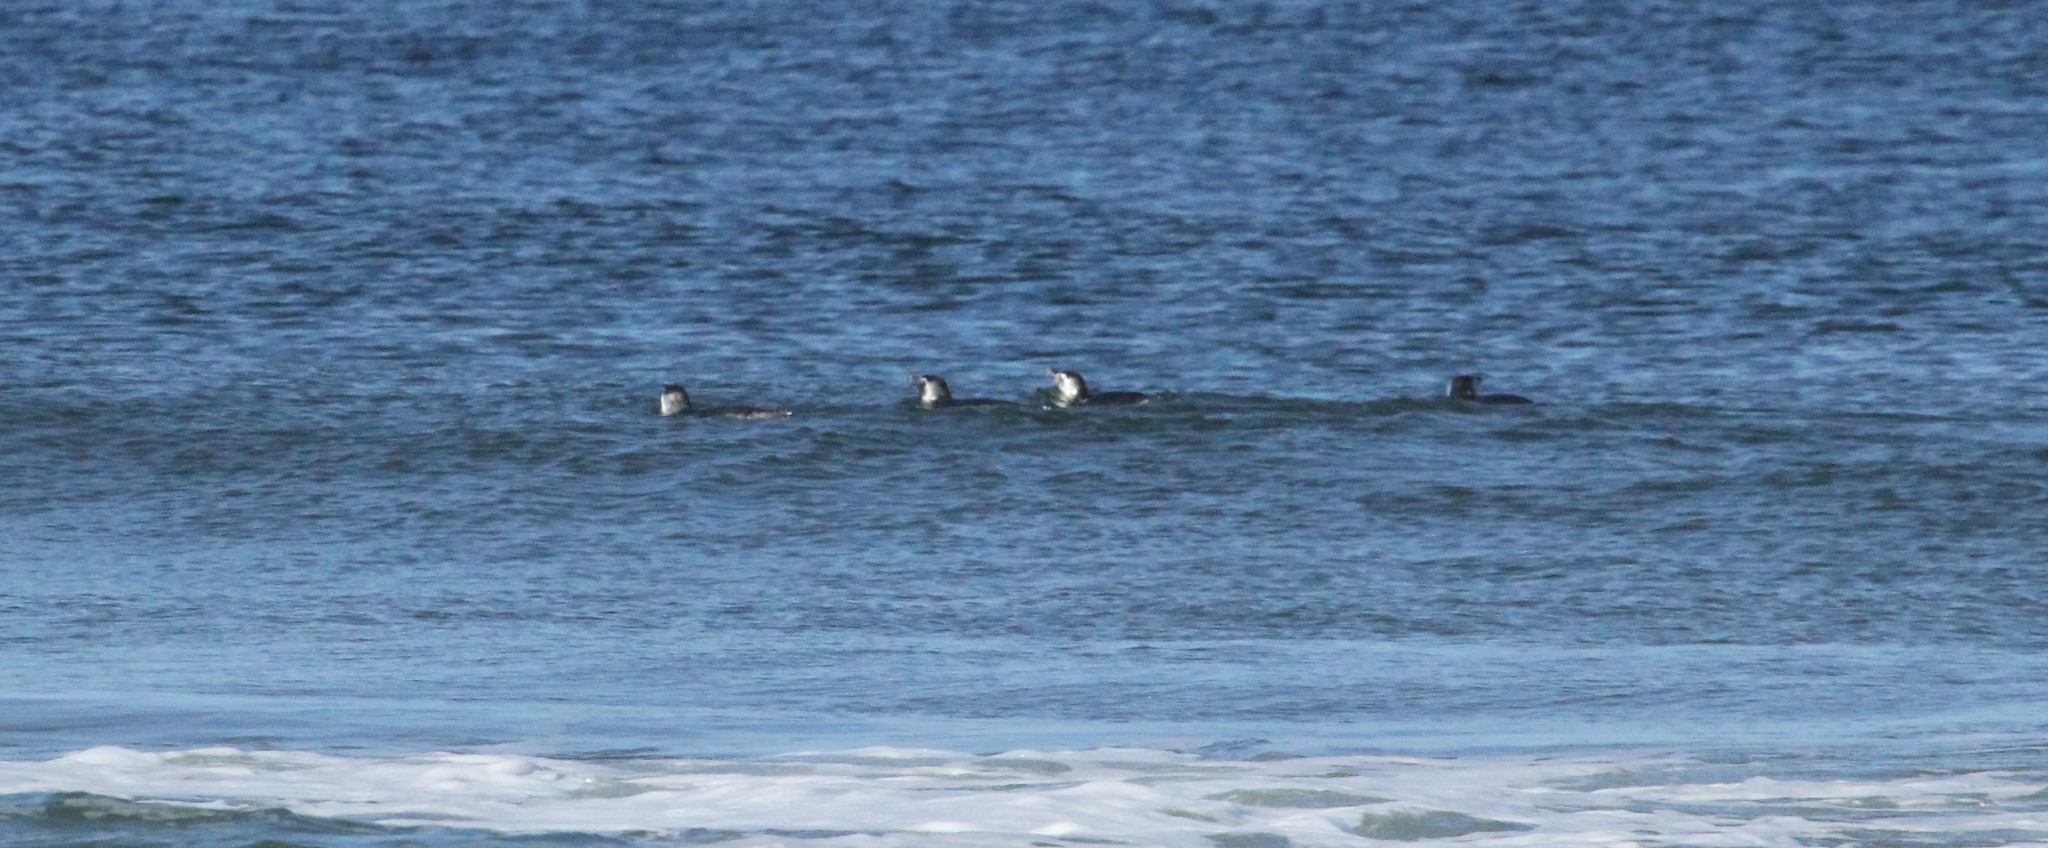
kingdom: Animalia
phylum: Chordata
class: Aves
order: Sphenisciformes
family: Spheniscidae
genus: Spheniscus
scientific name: Spheniscus magellanicus
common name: Magellanic penguin
